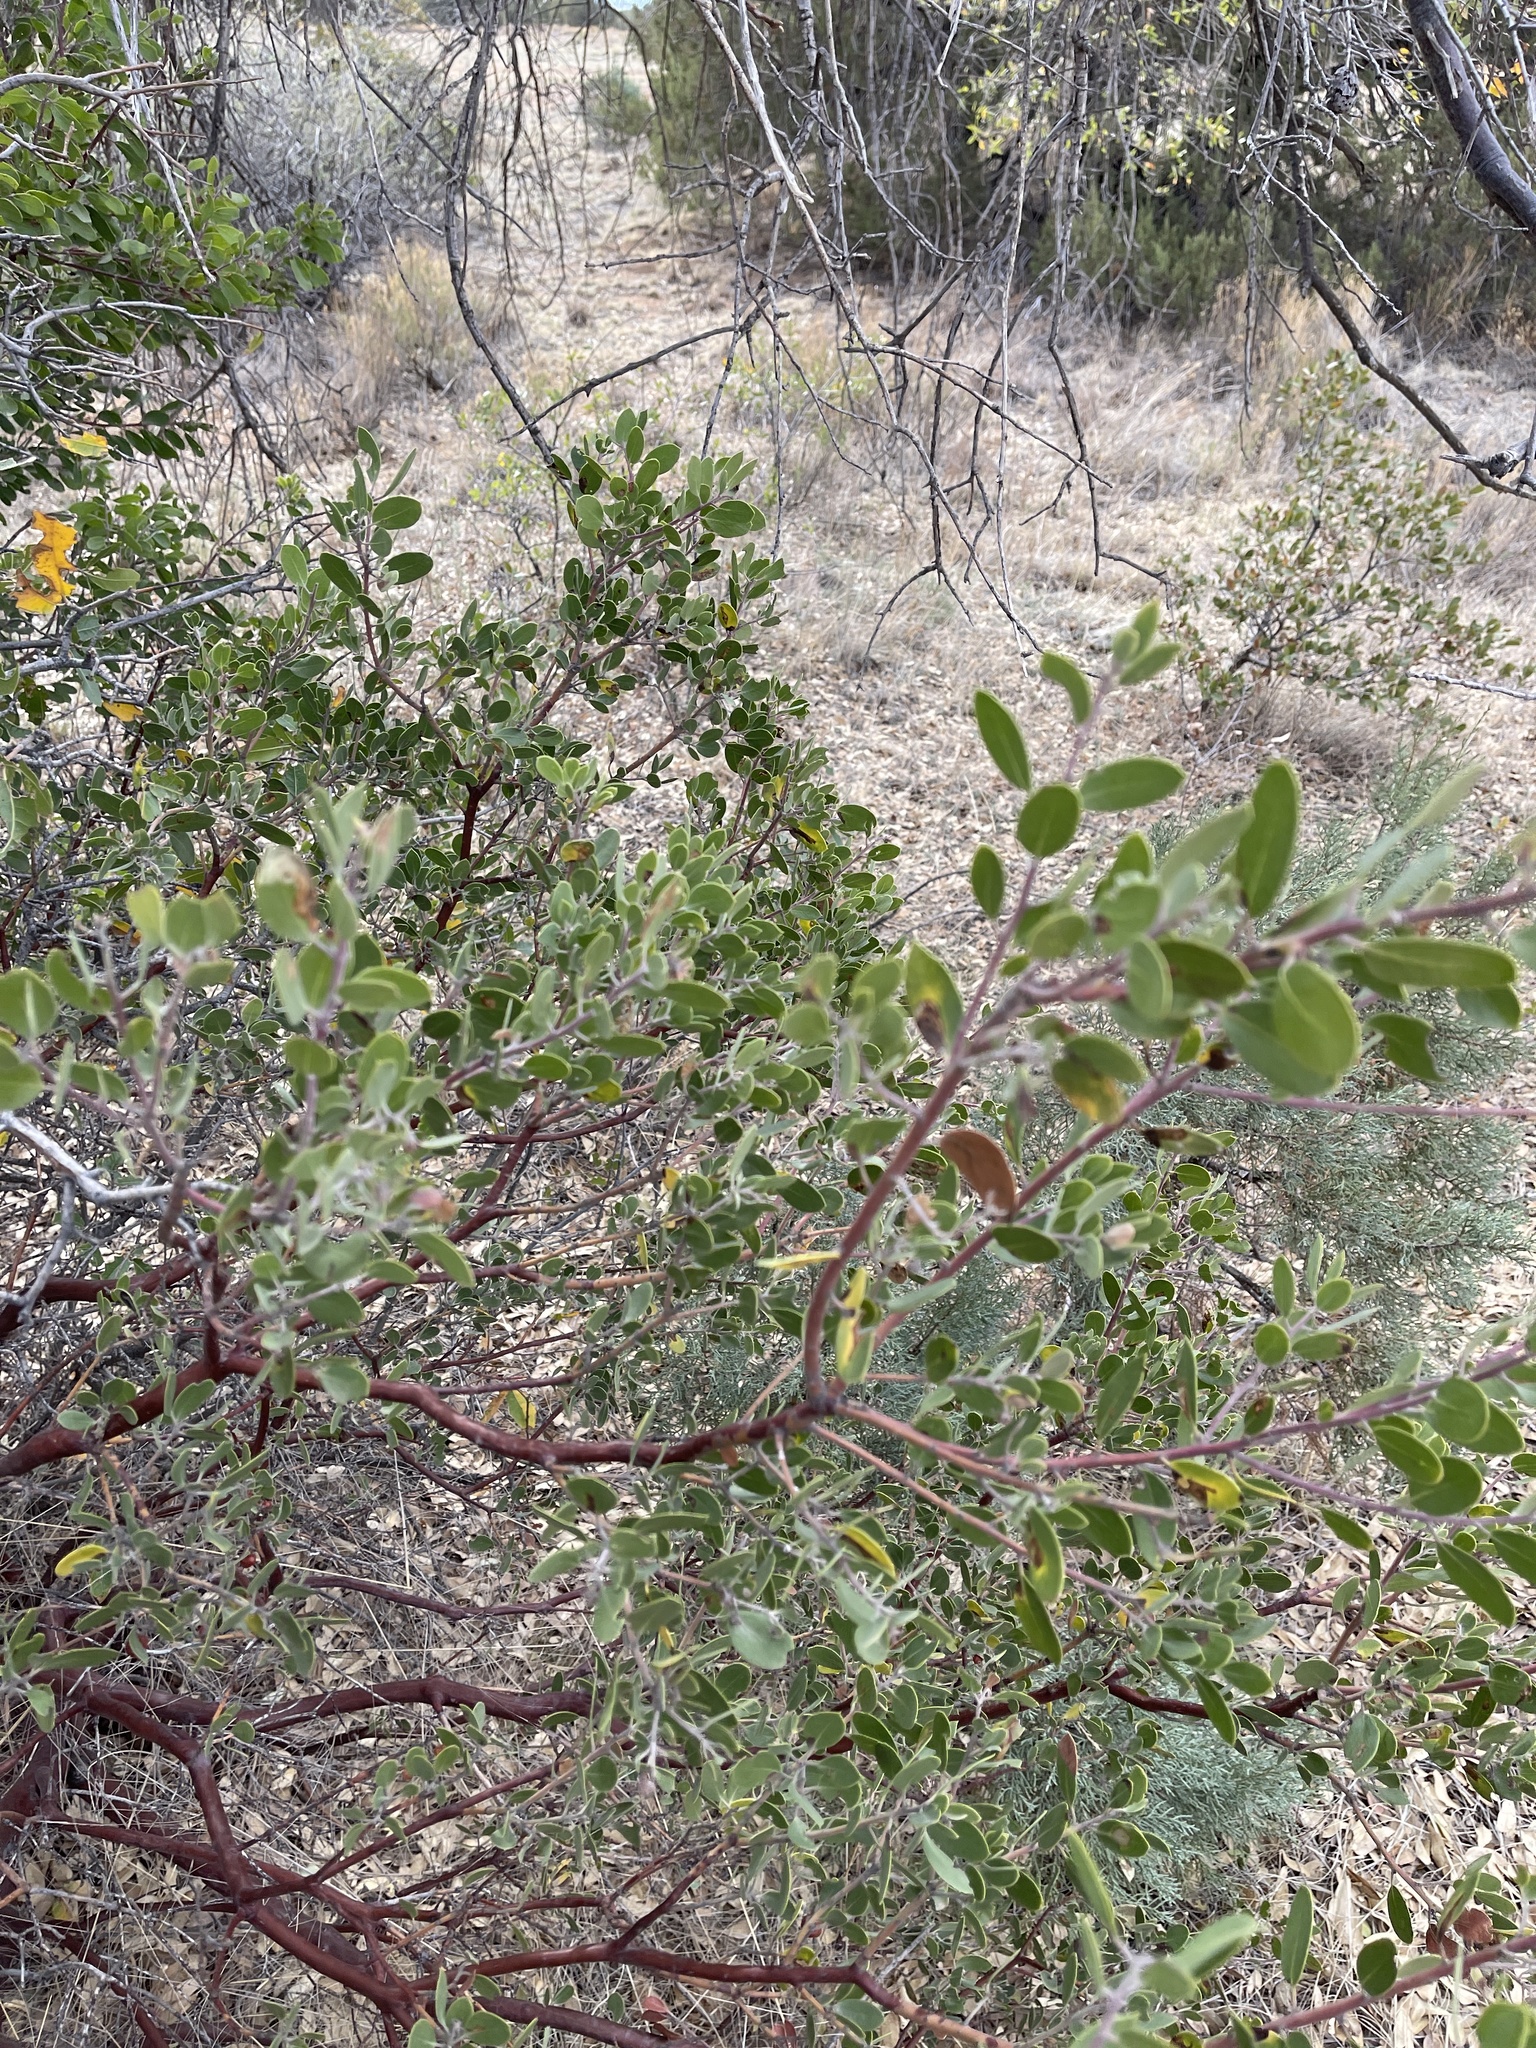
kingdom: Plantae
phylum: Tracheophyta
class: Magnoliopsida
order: Ericales
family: Ericaceae
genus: Arctostaphylos
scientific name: Arctostaphylos pungens
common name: Mexican manzanita
